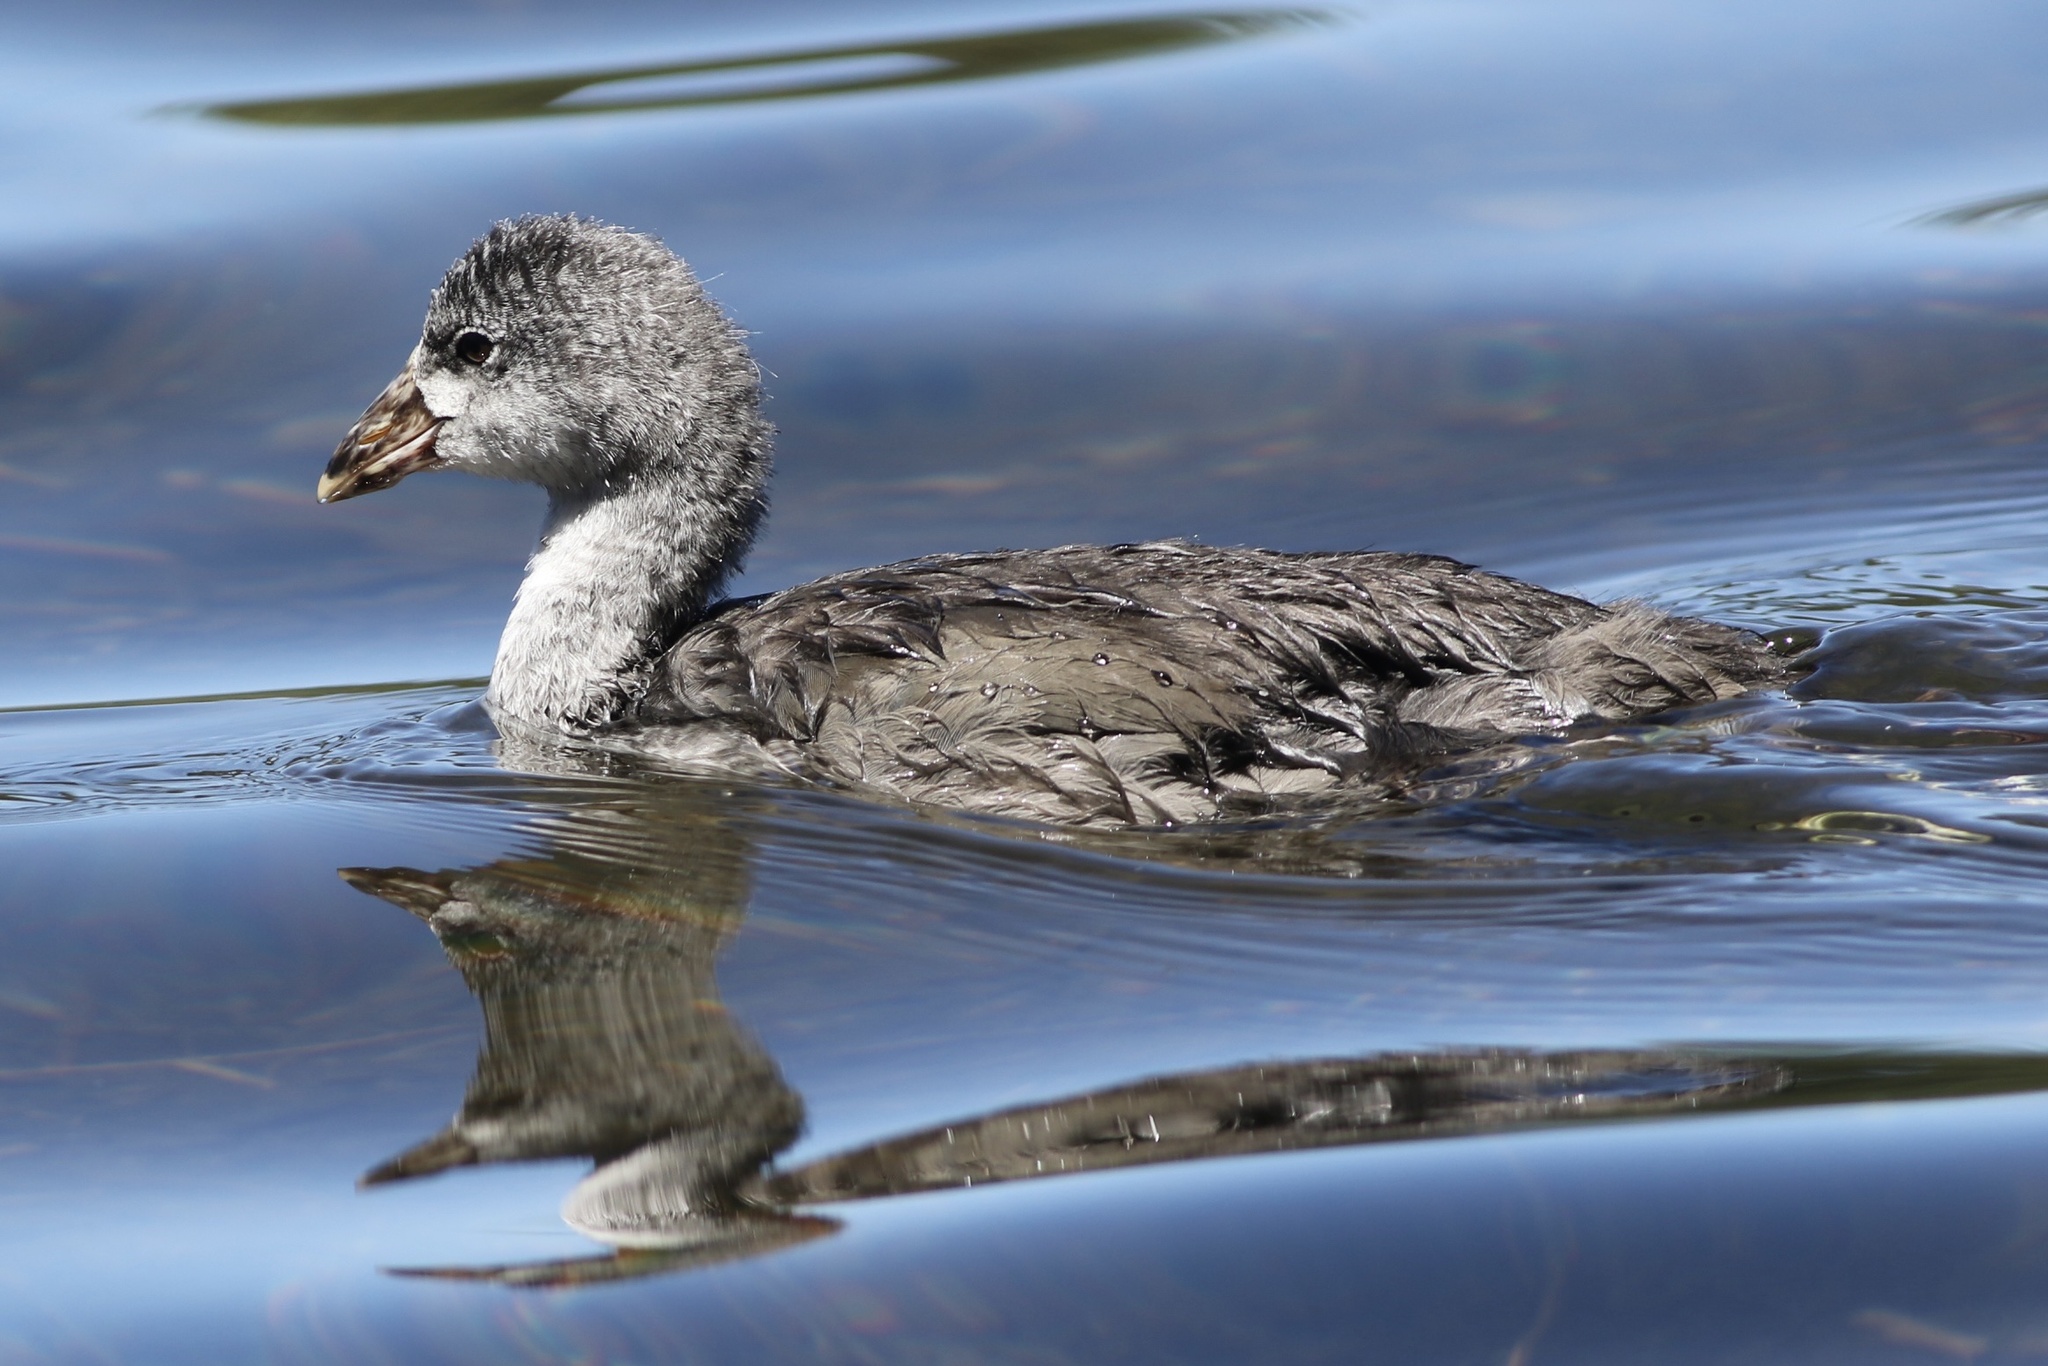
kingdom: Animalia
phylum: Chordata
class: Aves
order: Gruiformes
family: Rallidae
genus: Fulica
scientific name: Fulica americana
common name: American coot
